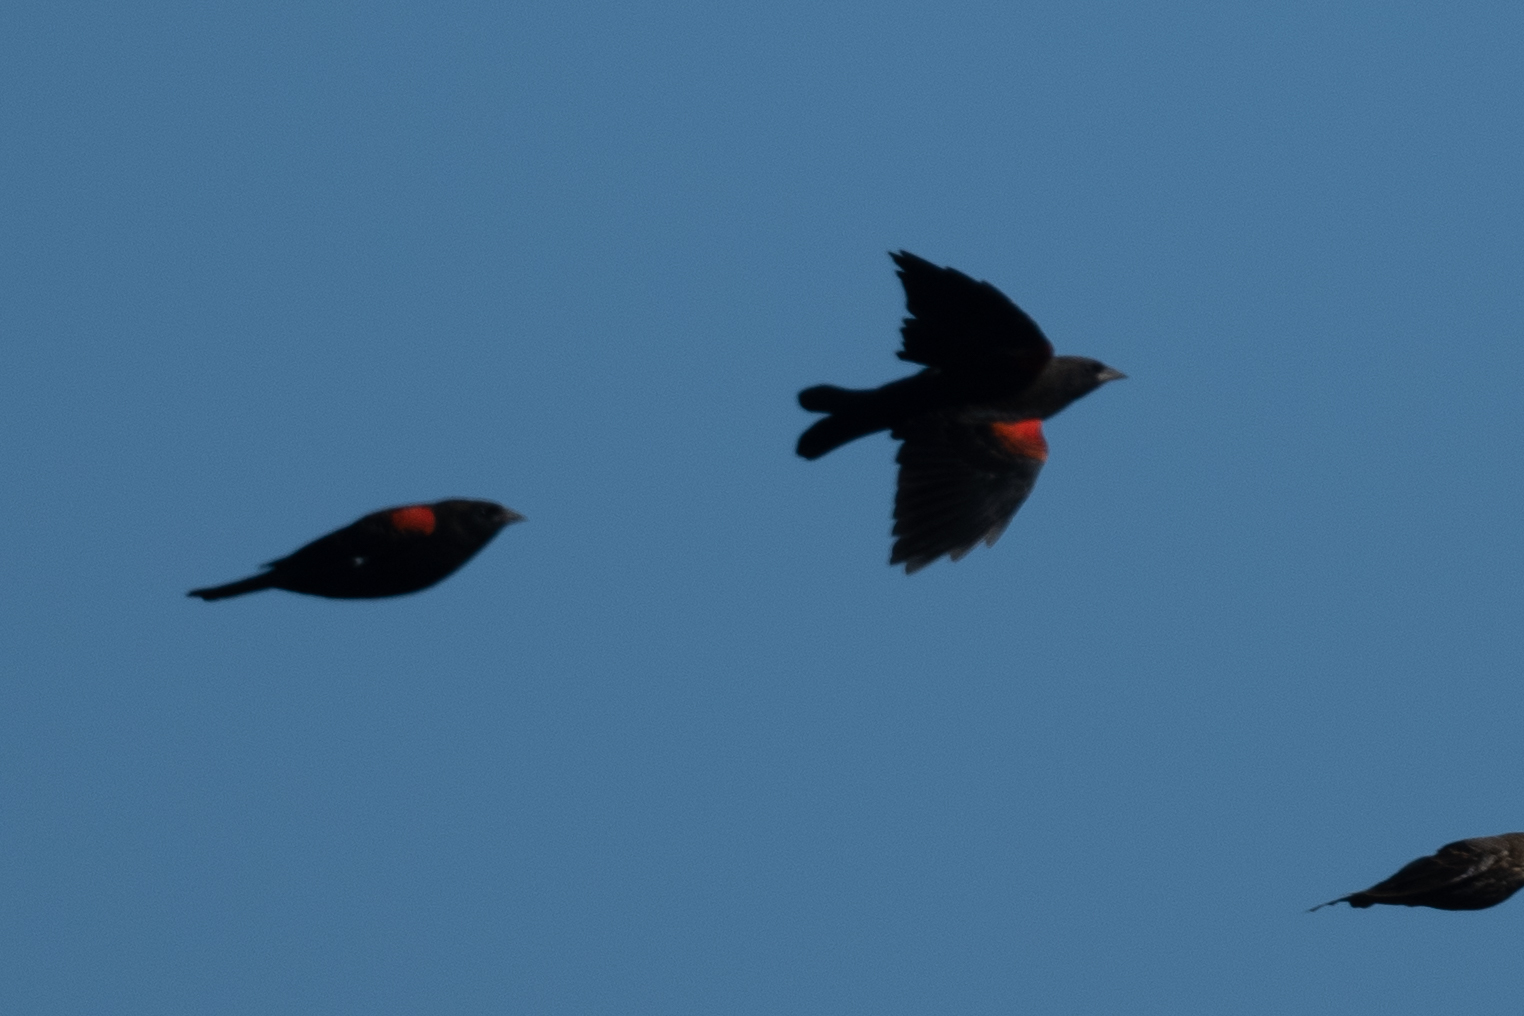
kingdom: Animalia
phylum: Chordata
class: Aves
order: Passeriformes
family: Icteridae
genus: Agelaius
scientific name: Agelaius phoeniceus
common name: Red-winged blackbird
